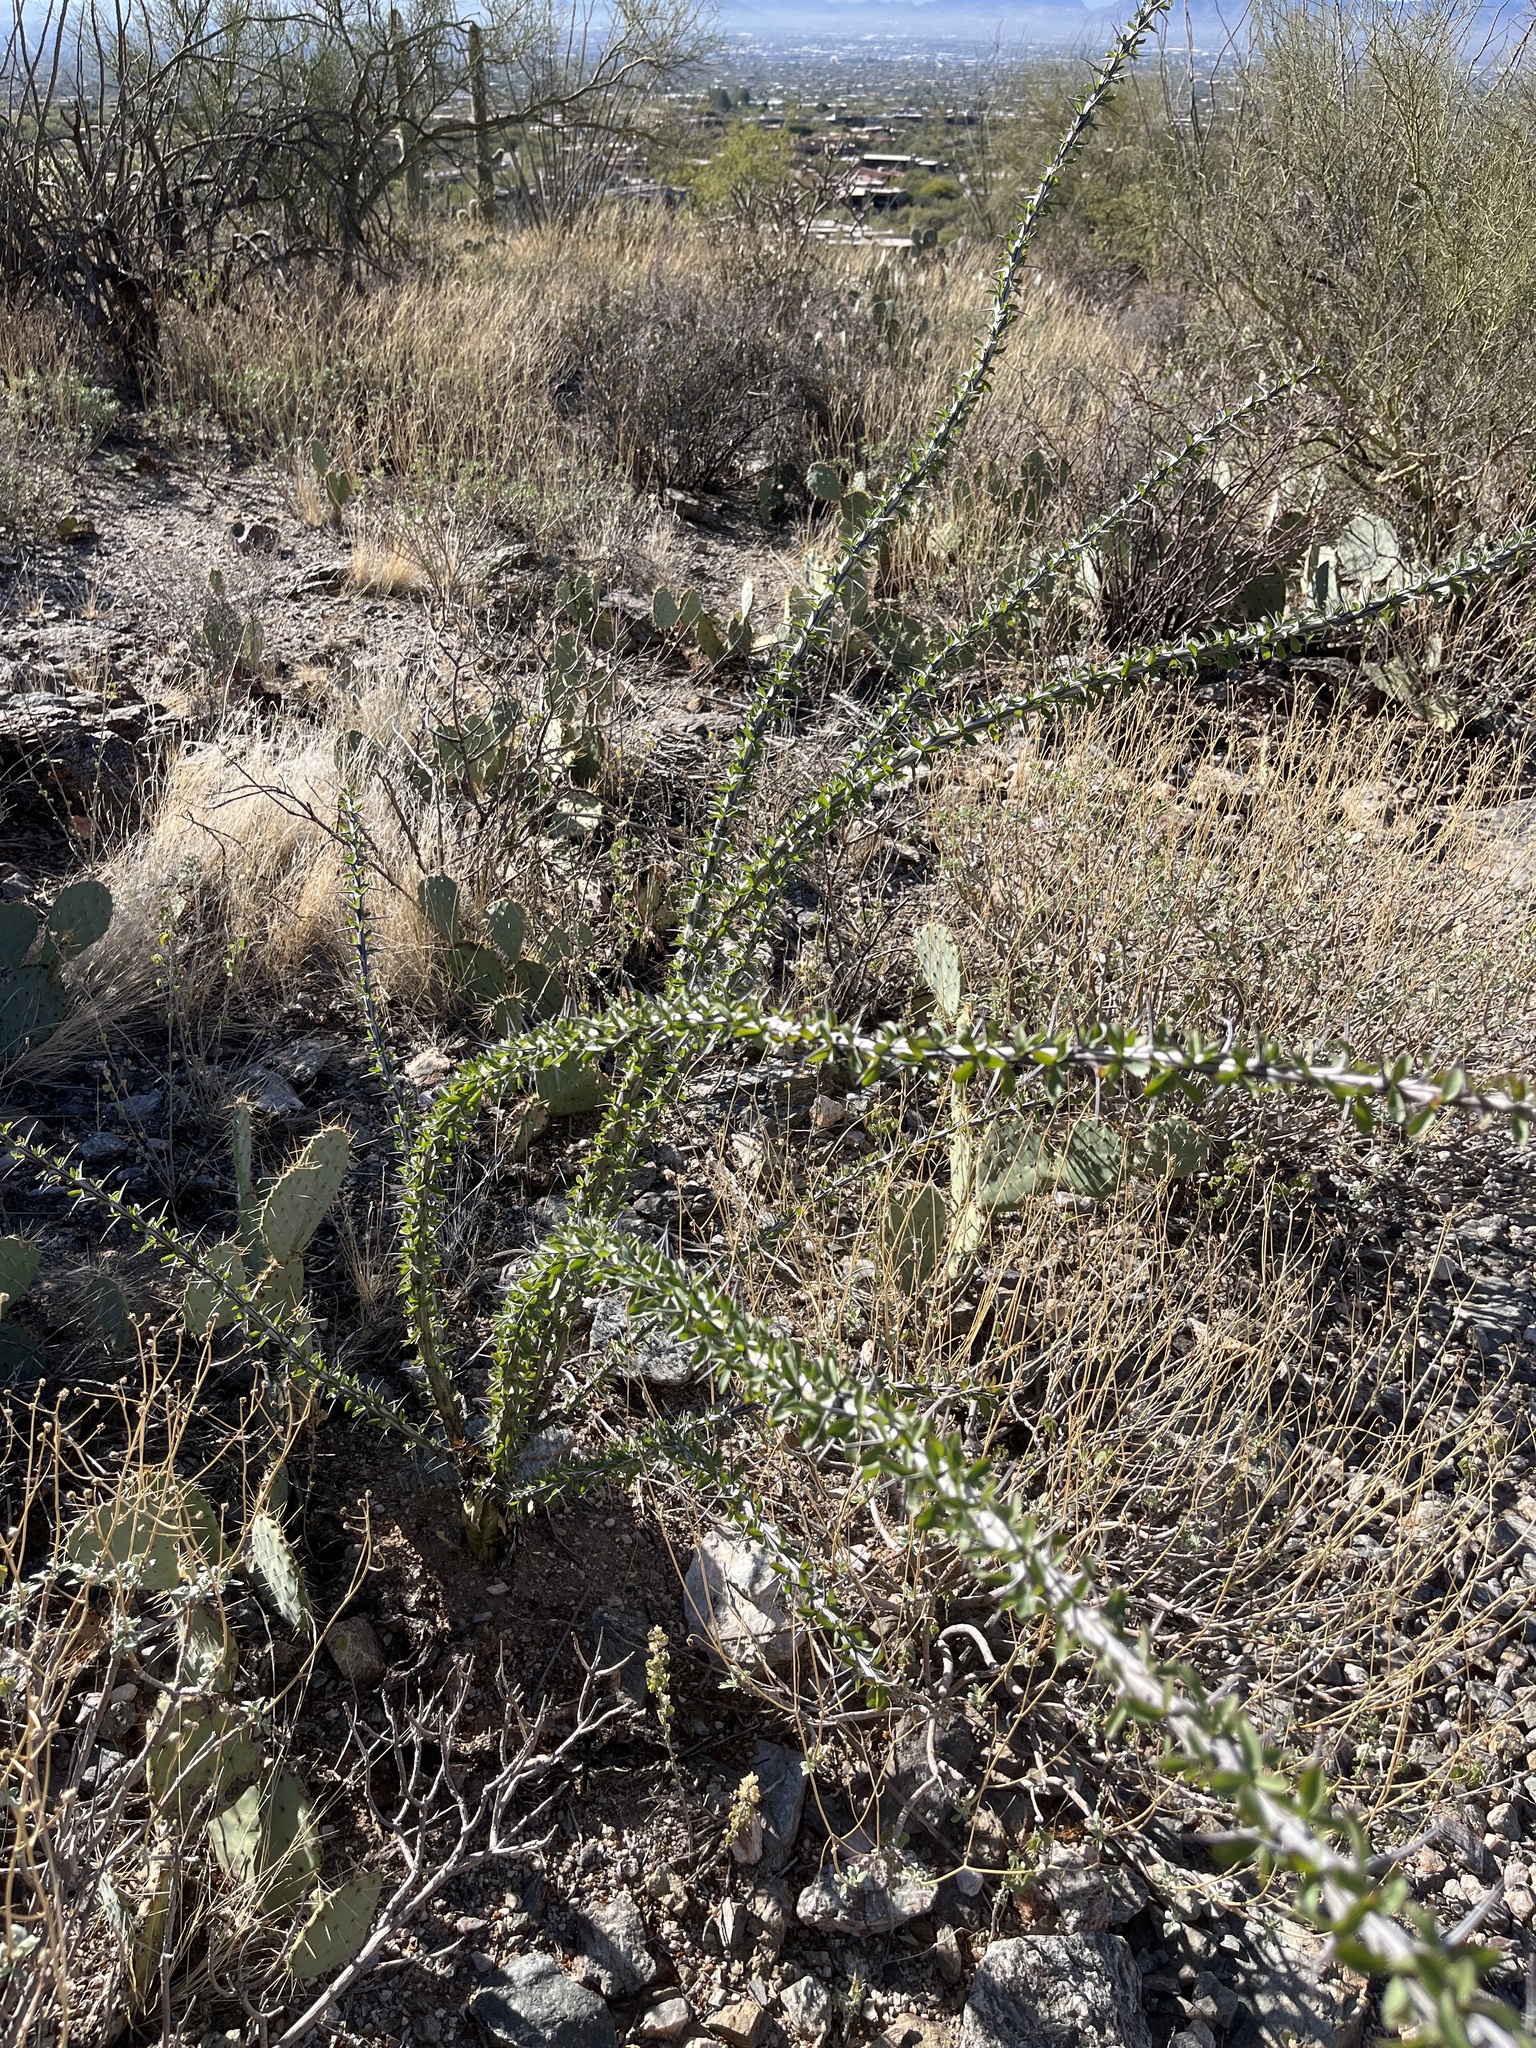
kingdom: Plantae
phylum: Tracheophyta
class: Magnoliopsida
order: Ericales
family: Fouquieriaceae
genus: Fouquieria
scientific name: Fouquieria splendens
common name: Vine-cactus
